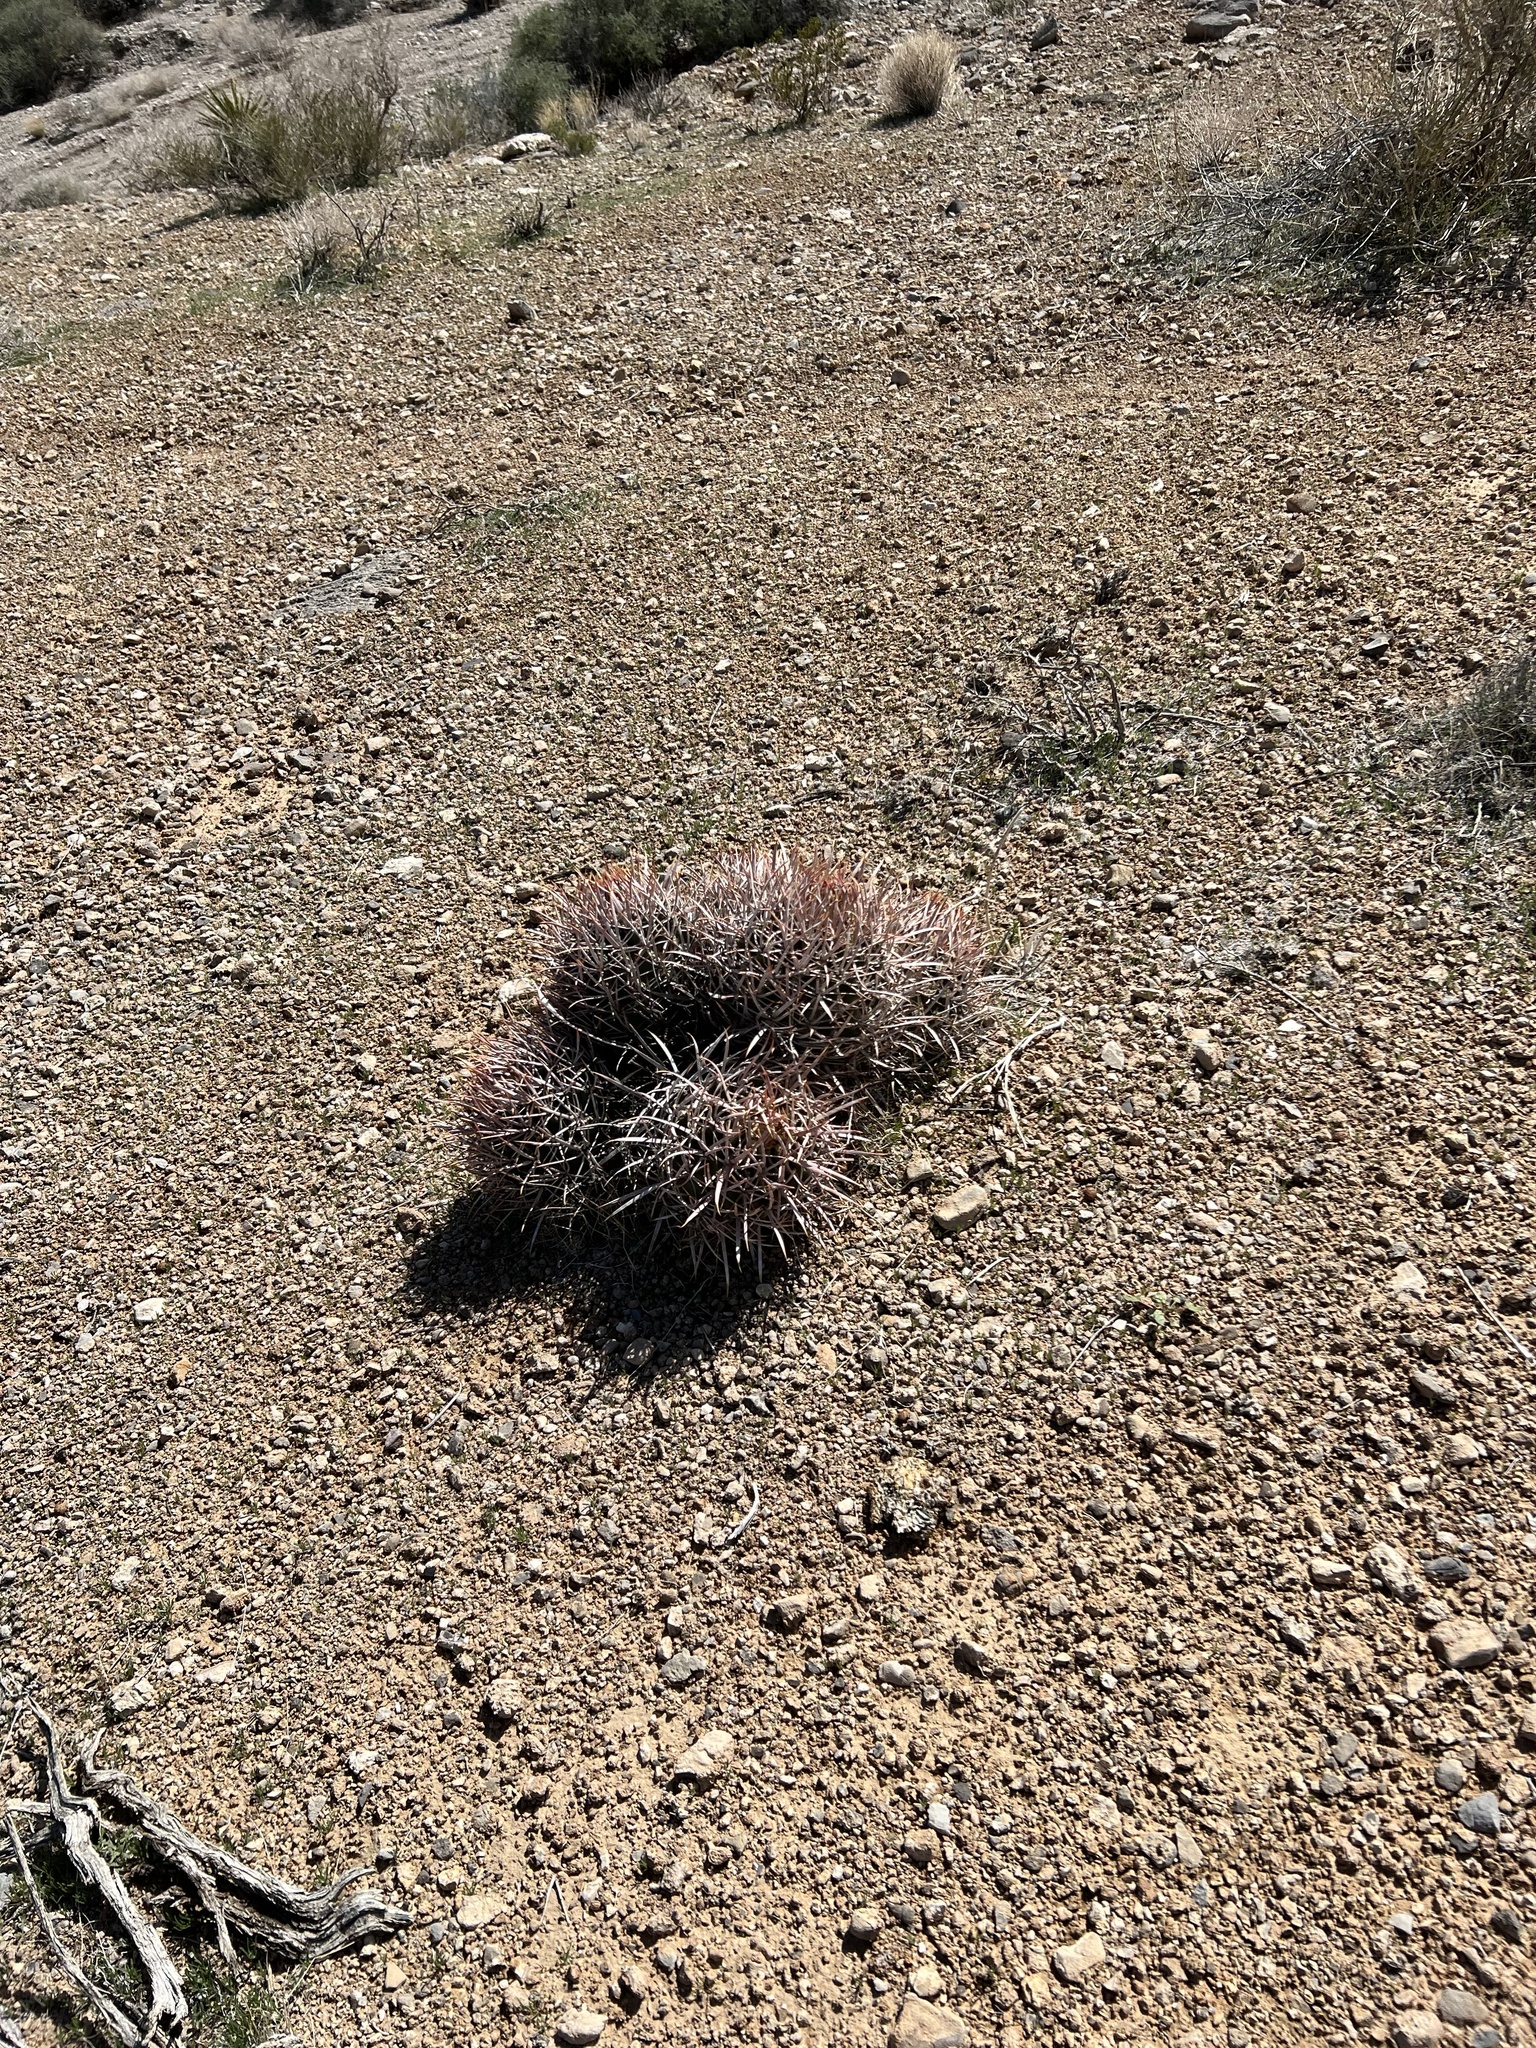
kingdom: Plantae
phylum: Tracheophyta
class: Magnoliopsida
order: Caryophyllales
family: Cactaceae
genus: Echinocactus
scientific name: Echinocactus polycephalus
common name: Cottontop cactus
